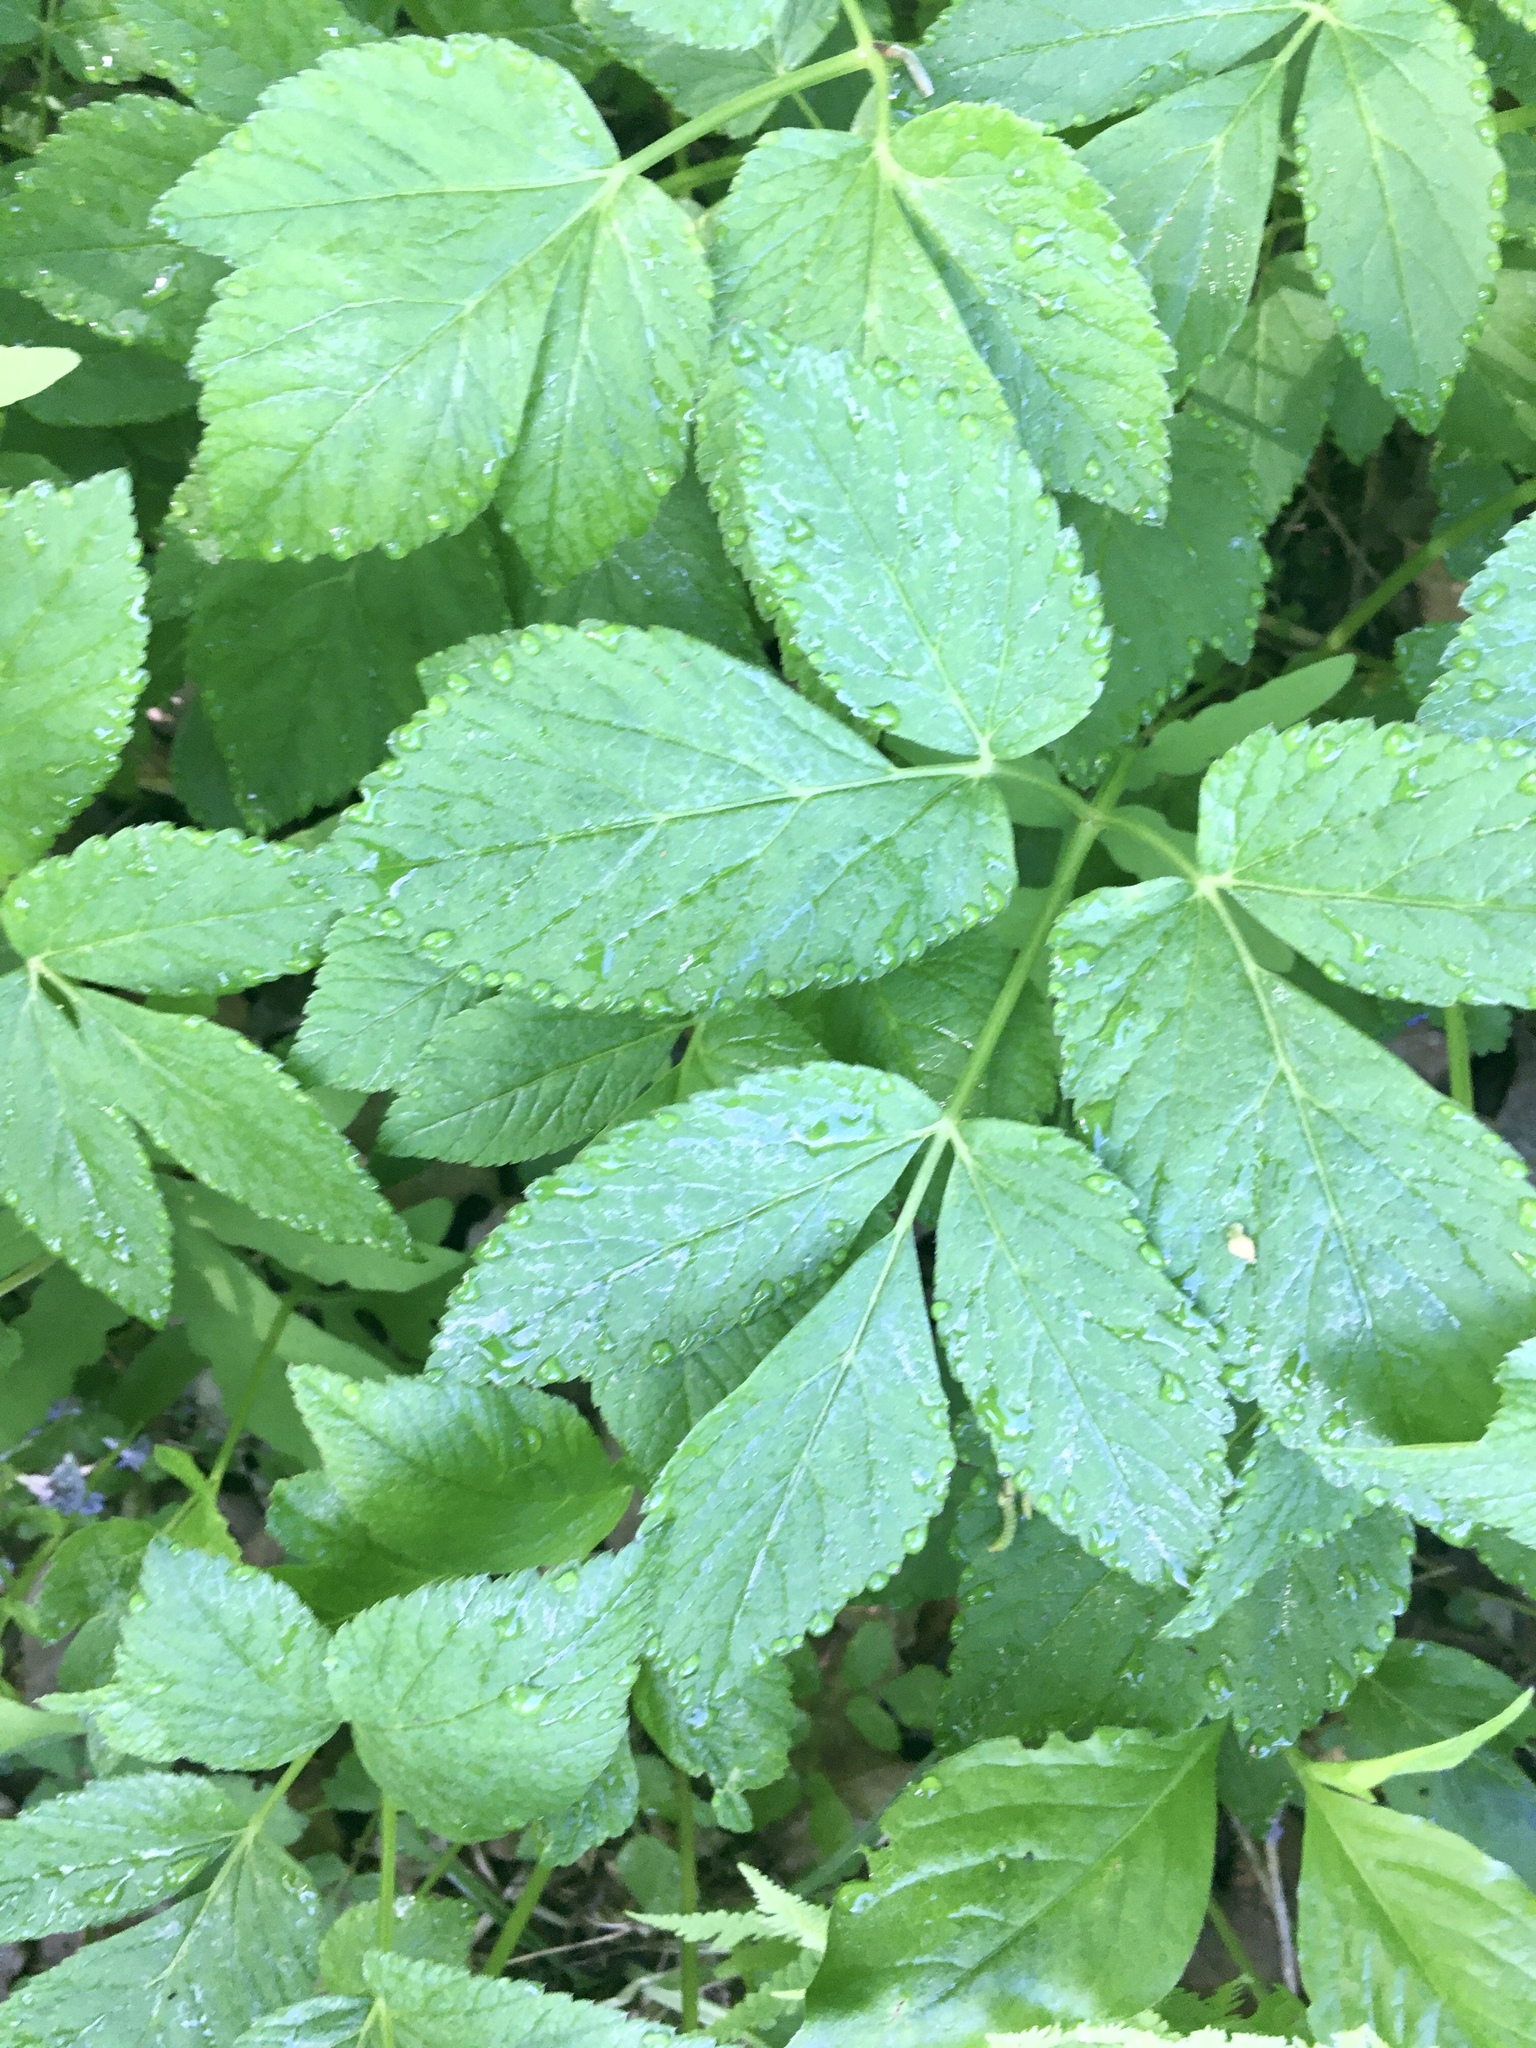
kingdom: Plantae
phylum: Tracheophyta
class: Magnoliopsida
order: Apiales
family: Apiaceae
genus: Aegopodium
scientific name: Aegopodium podagraria
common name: Ground-elder
